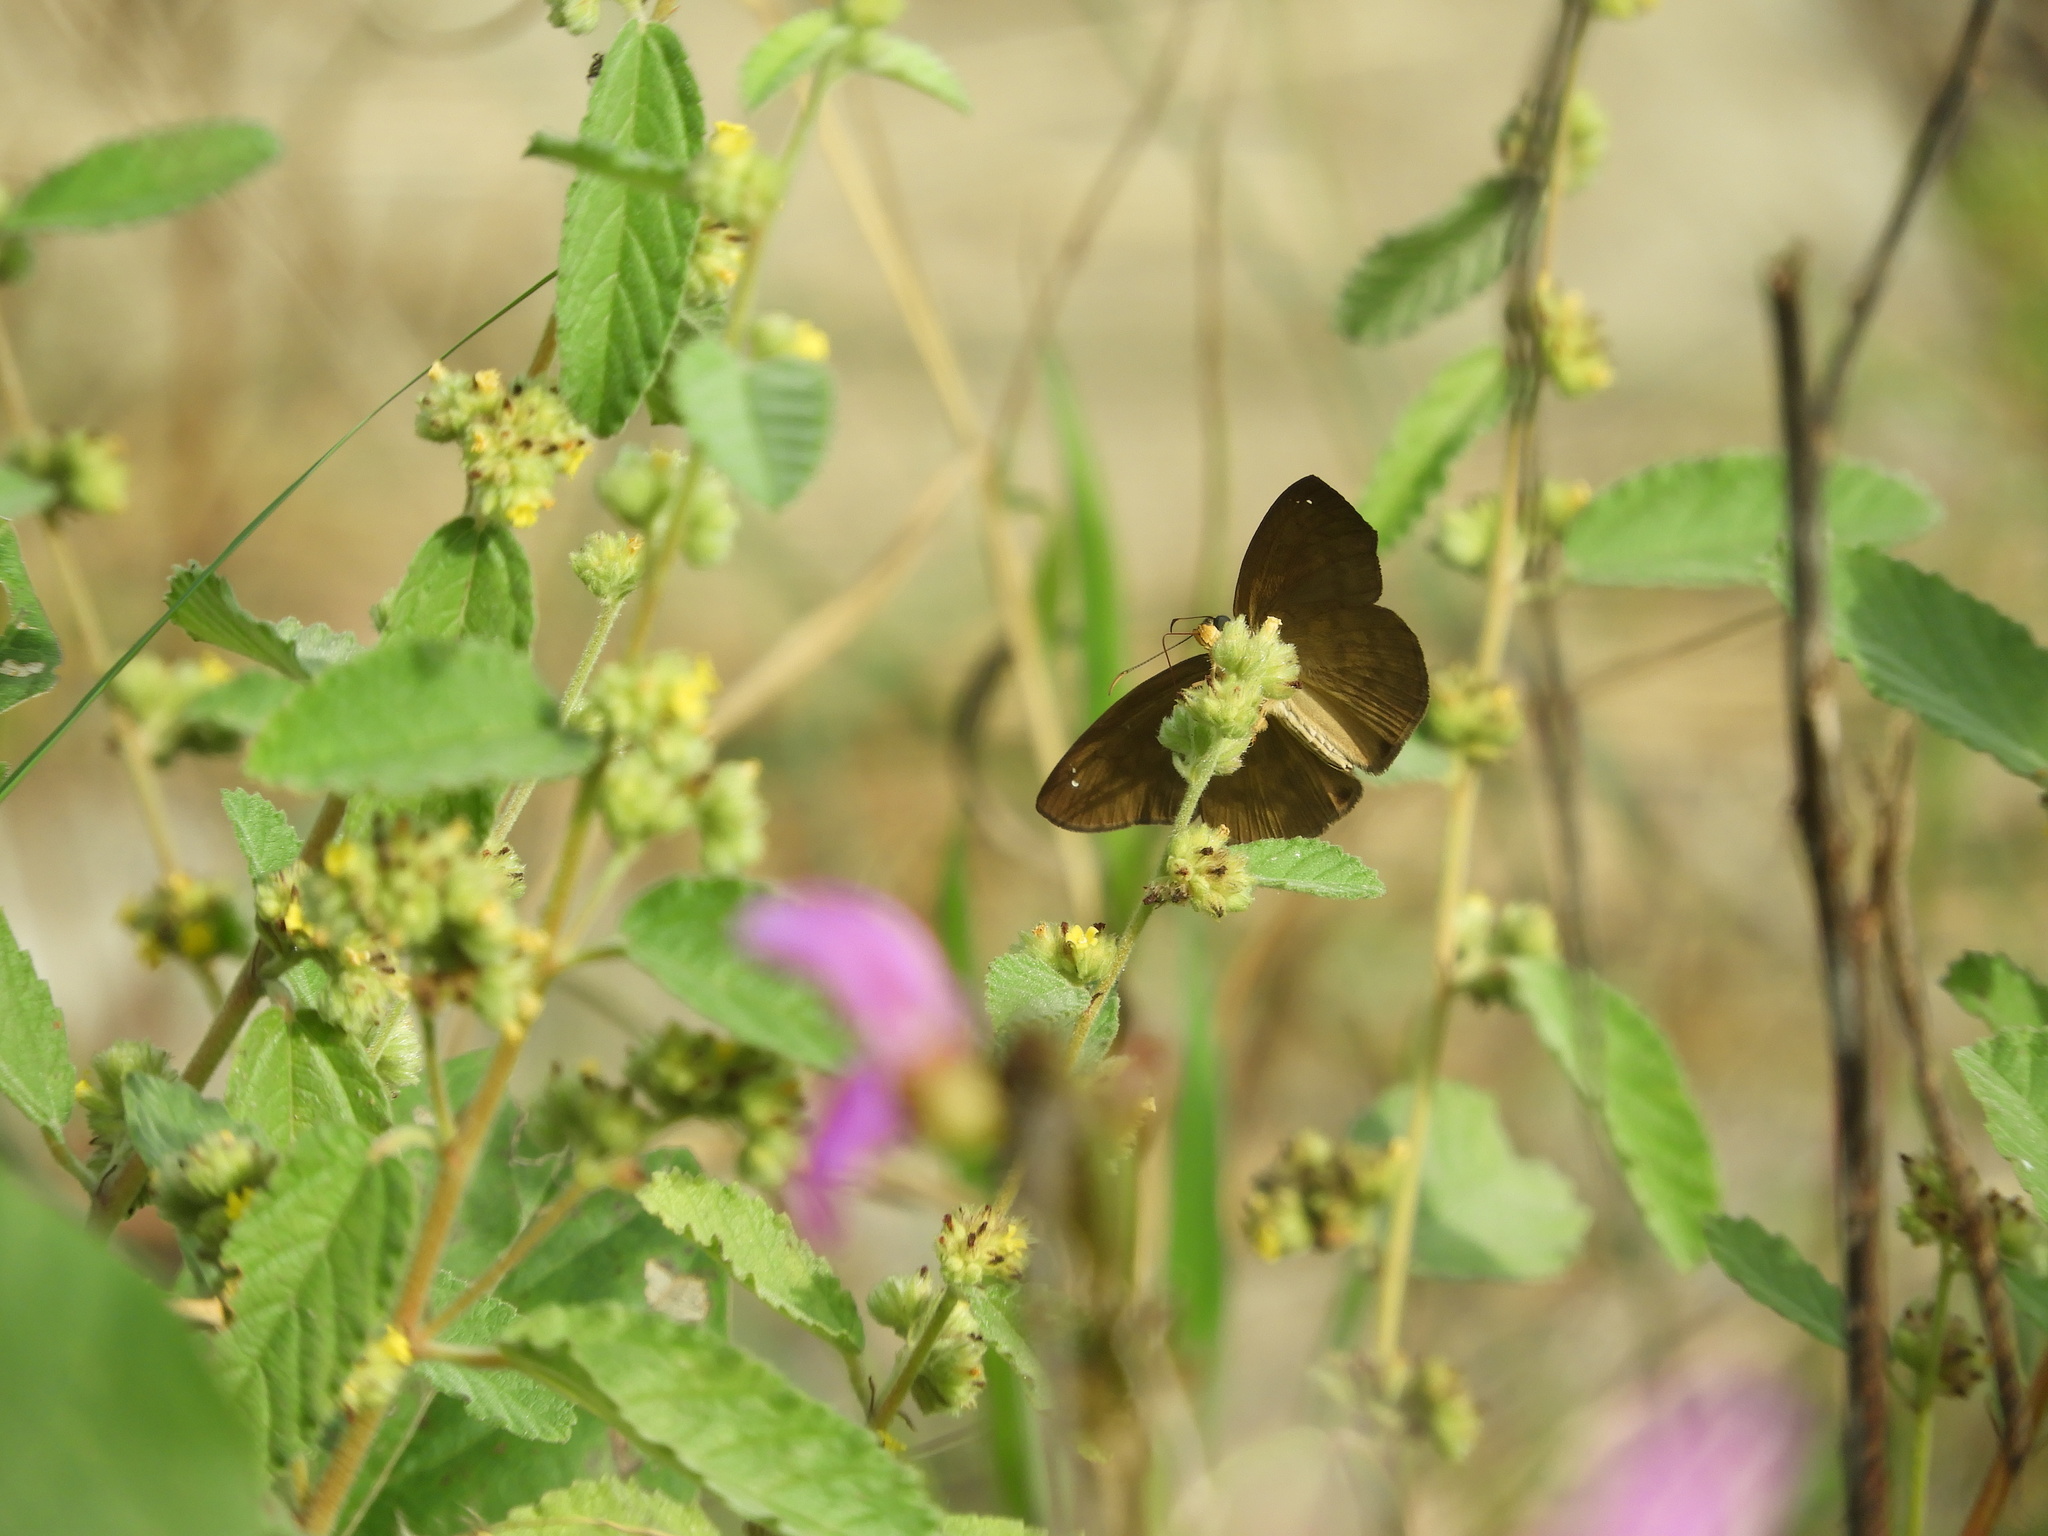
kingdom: Plantae
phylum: Tracheophyta
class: Magnoliopsida
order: Malvales
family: Malvaceae
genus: Waltheria
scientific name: Waltheria indica
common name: Leather-coat
